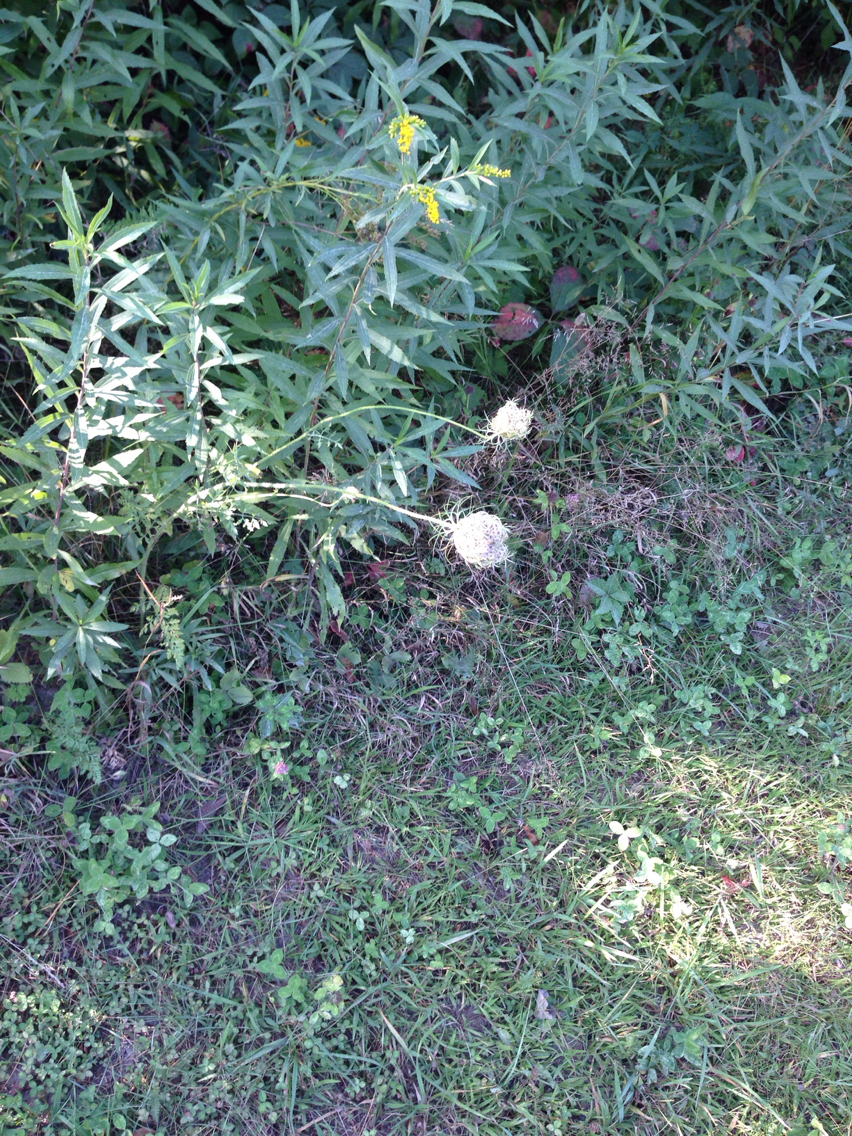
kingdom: Plantae
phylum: Tracheophyta
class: Magnoliopsida
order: Apiales
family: Apiaceae
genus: Daucus
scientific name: Daucus carota
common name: Wild carrot
